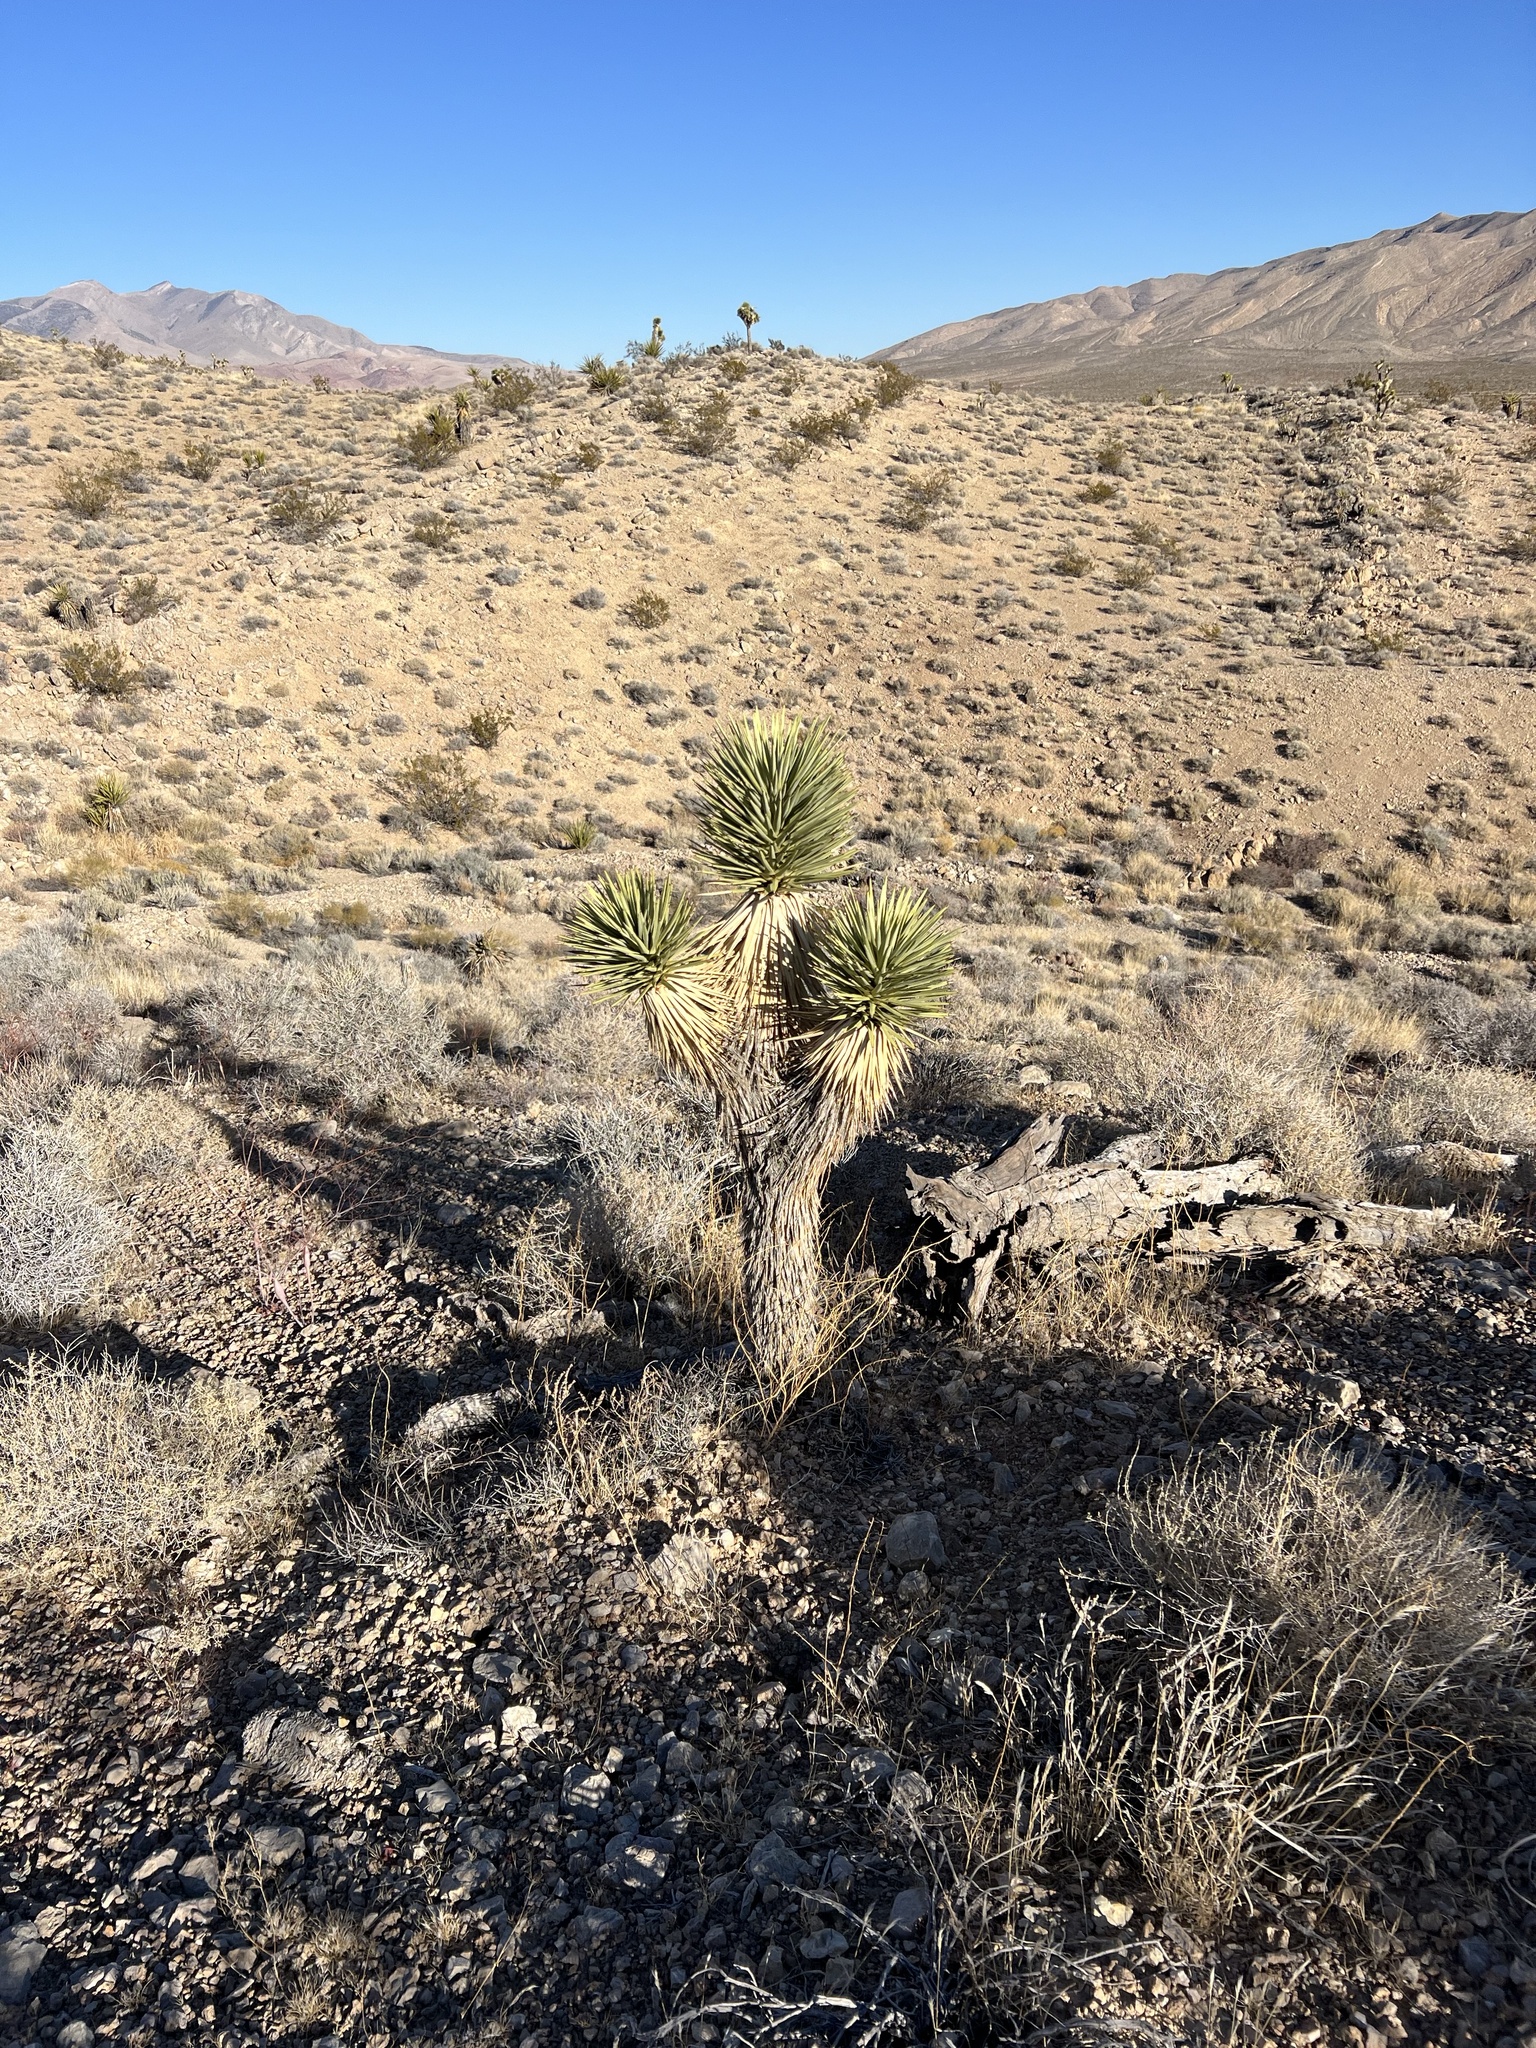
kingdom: Plantae
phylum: Tracheophyta
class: Liliopsida
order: Asparagales
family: Asparagaceae
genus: Yucca
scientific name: Yucca brevifolia
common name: Joshua tree
